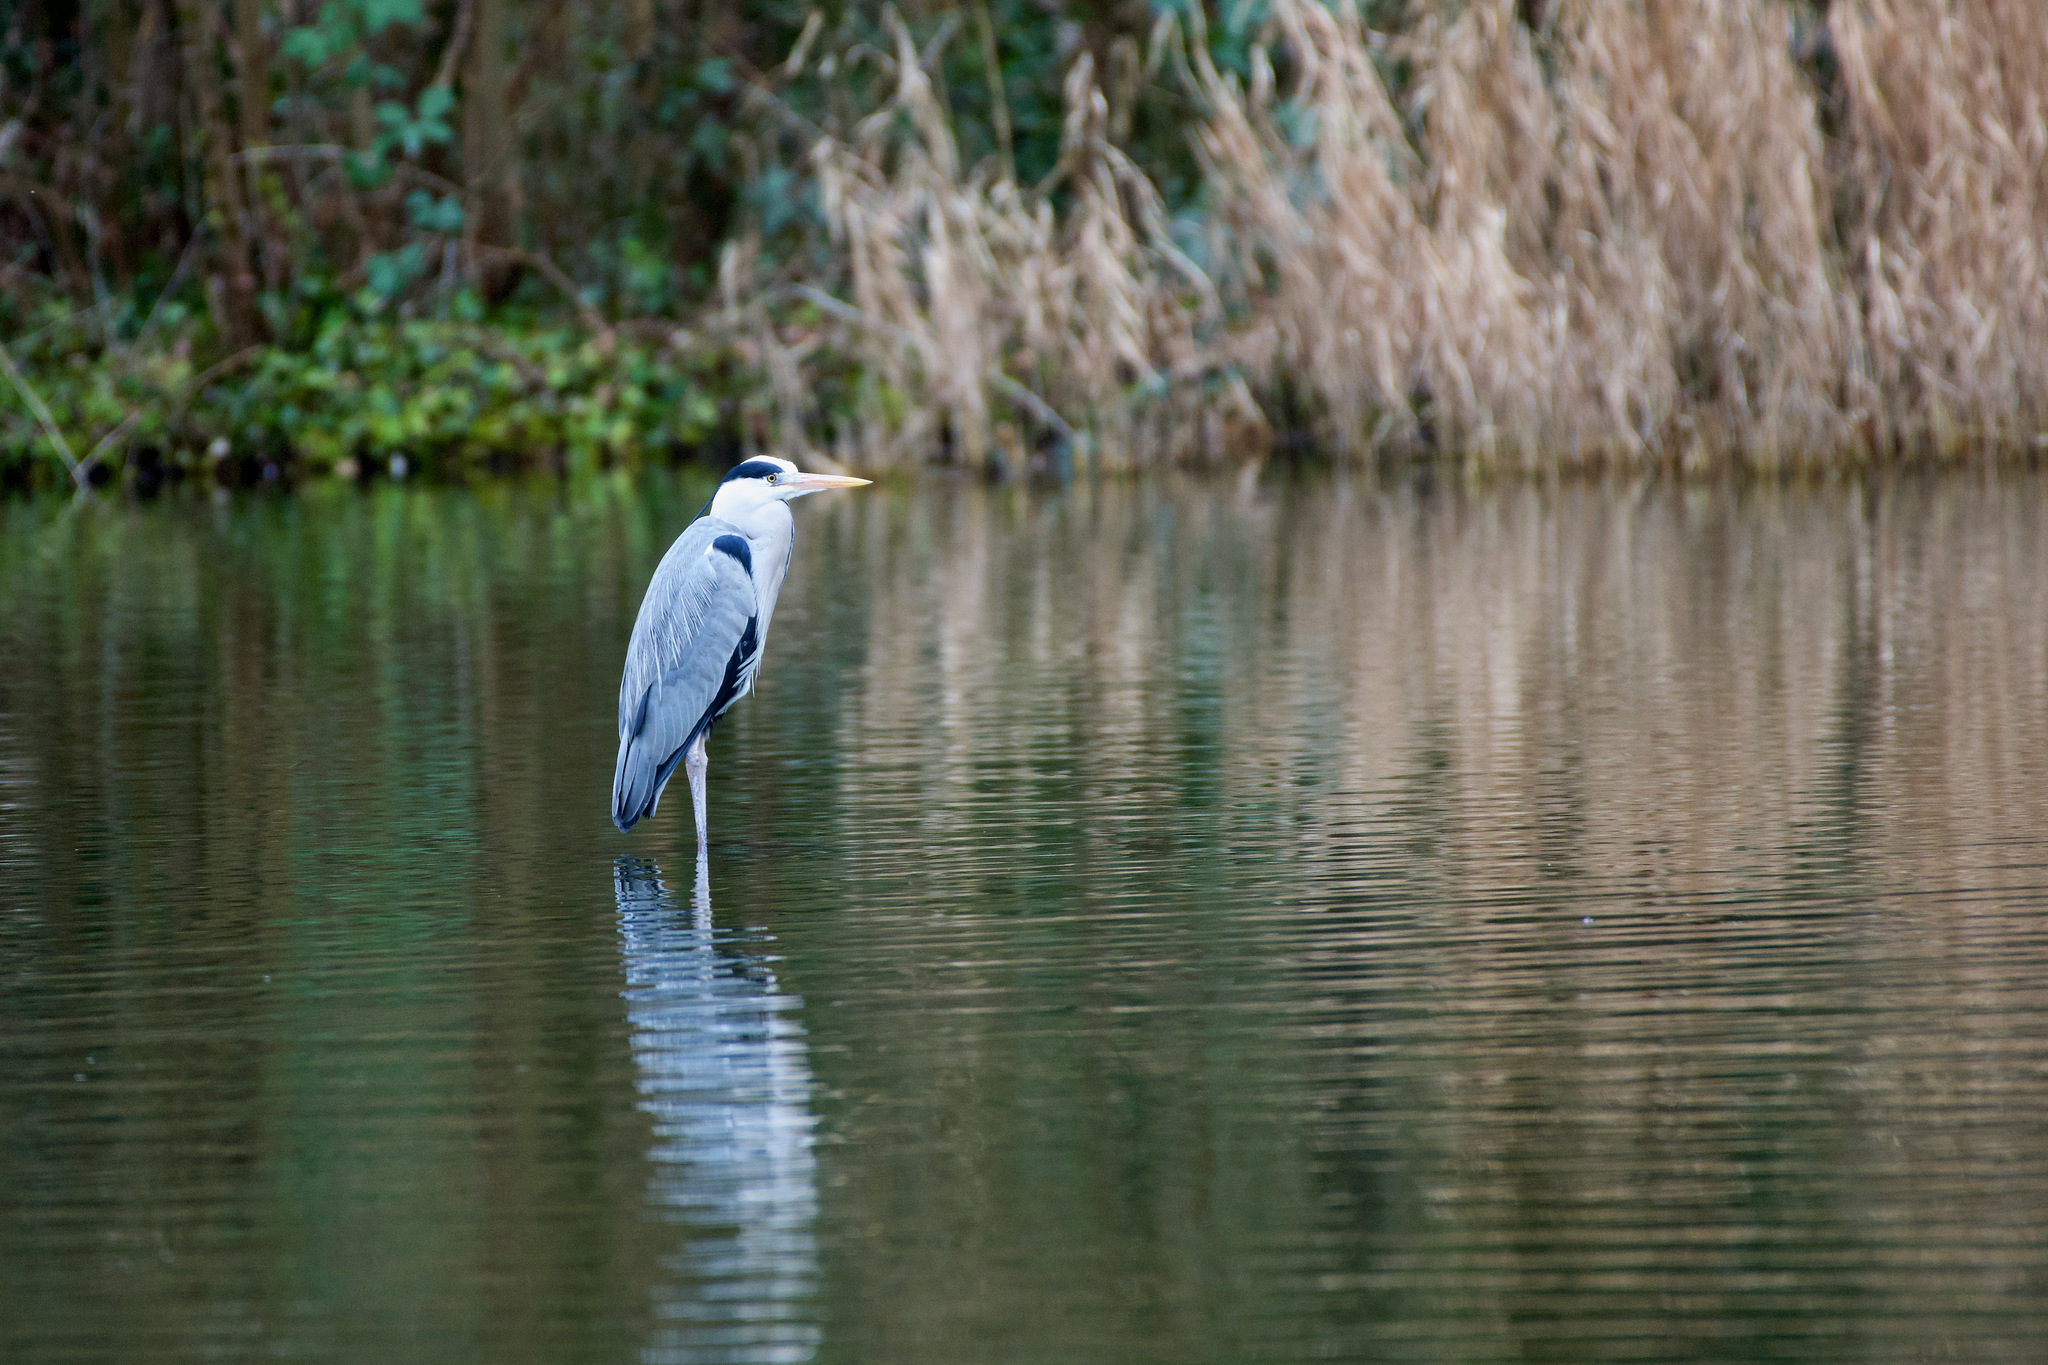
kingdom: Animalia
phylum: Chordata
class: Aves
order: Pelecaniformes
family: Ardeidae
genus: Ardea
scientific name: Ardea cinerea
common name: Grey heron
